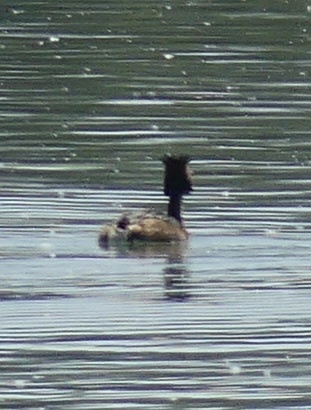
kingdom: Animalia
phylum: Chordata
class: Aves
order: Podicipediformes
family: Podicipedidae
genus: Podiceps
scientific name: Podiceps cristatus
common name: Great crested grebe
